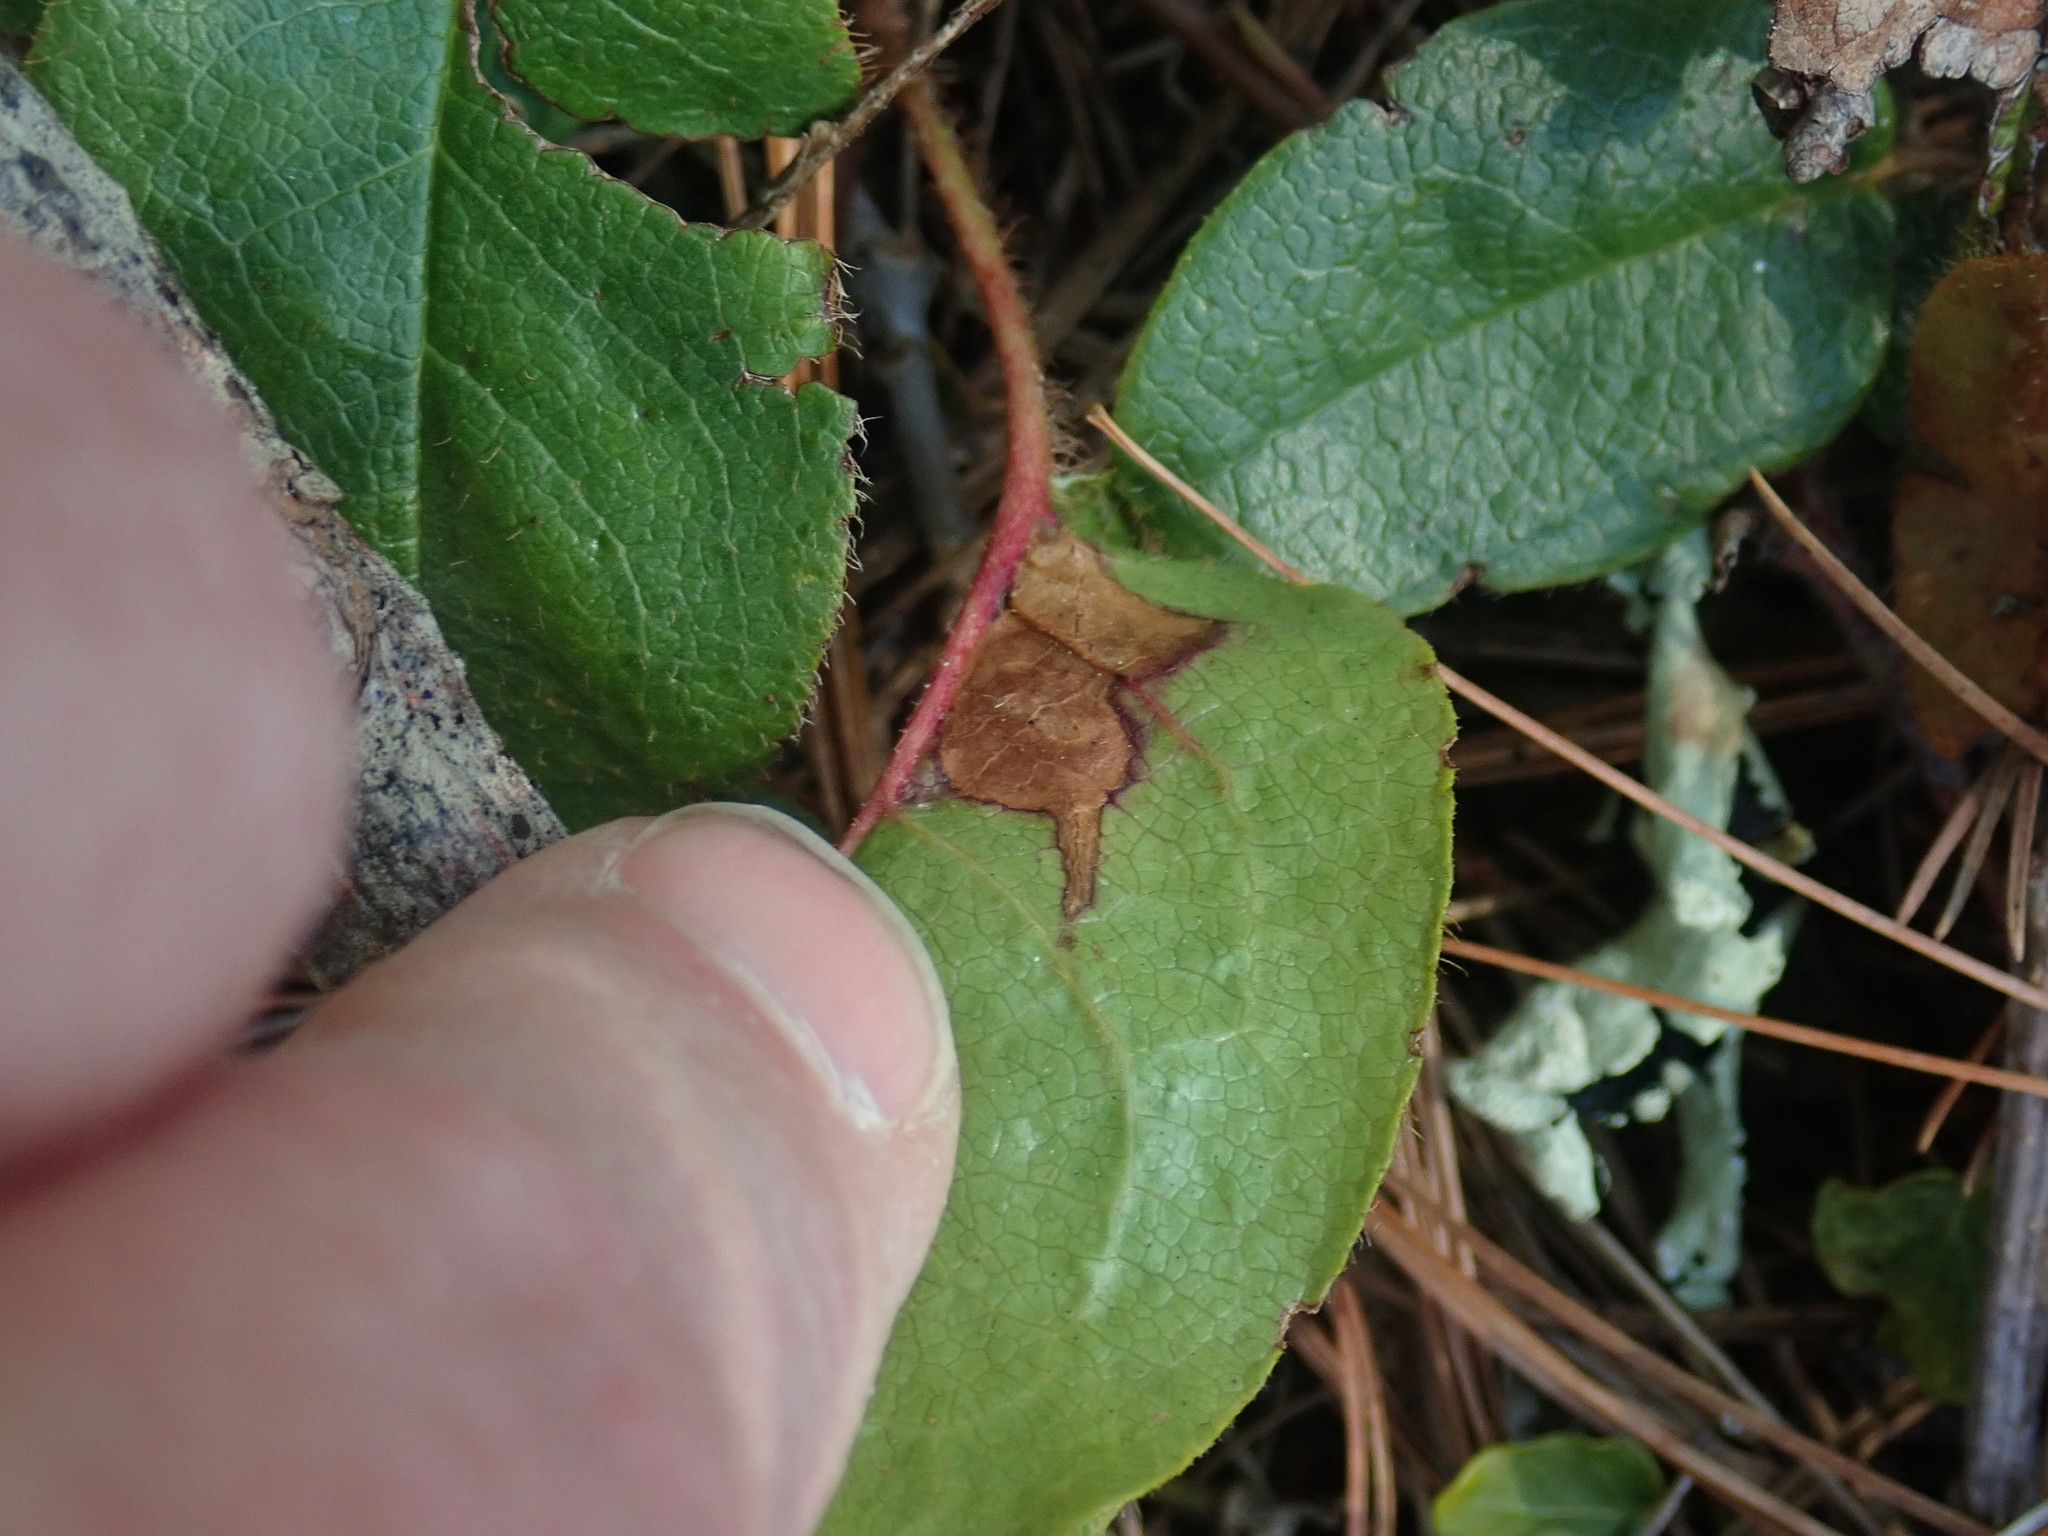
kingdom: Animalia
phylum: Arthropoda
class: Insecta
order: Coleoptera
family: Buprestidae
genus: Brachys
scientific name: Brachys
